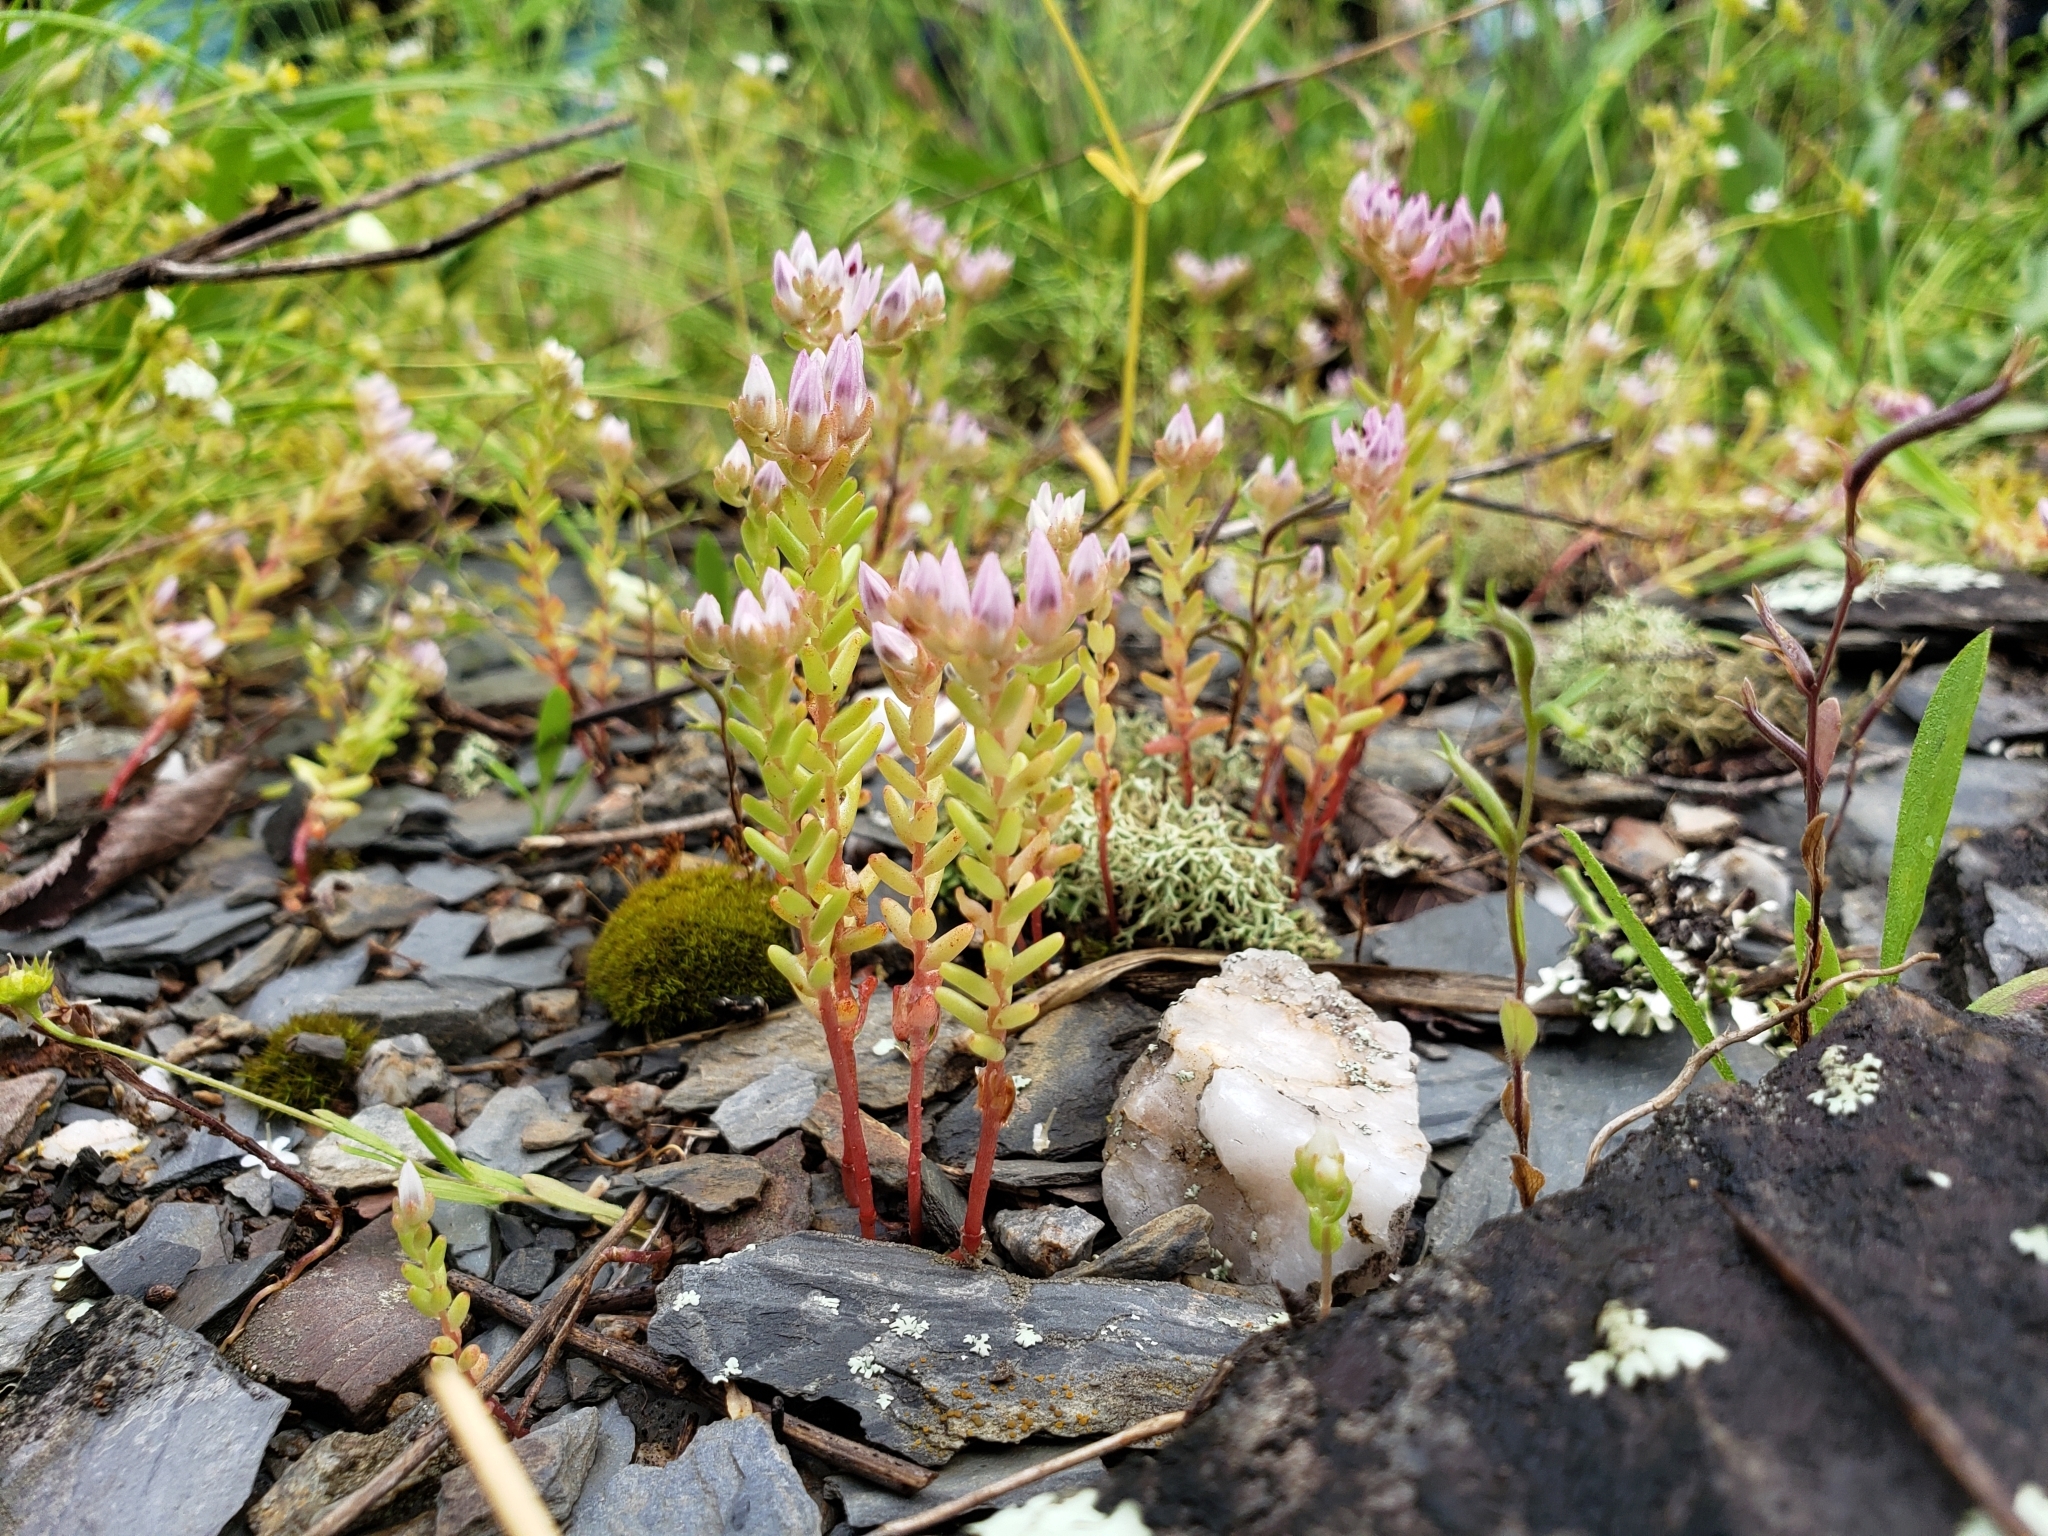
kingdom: Plantae
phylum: Tracheophyta
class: Magnoliopsida
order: Saxifragales
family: Crassulaceae
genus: Sedum
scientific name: Sedum pulchellum
